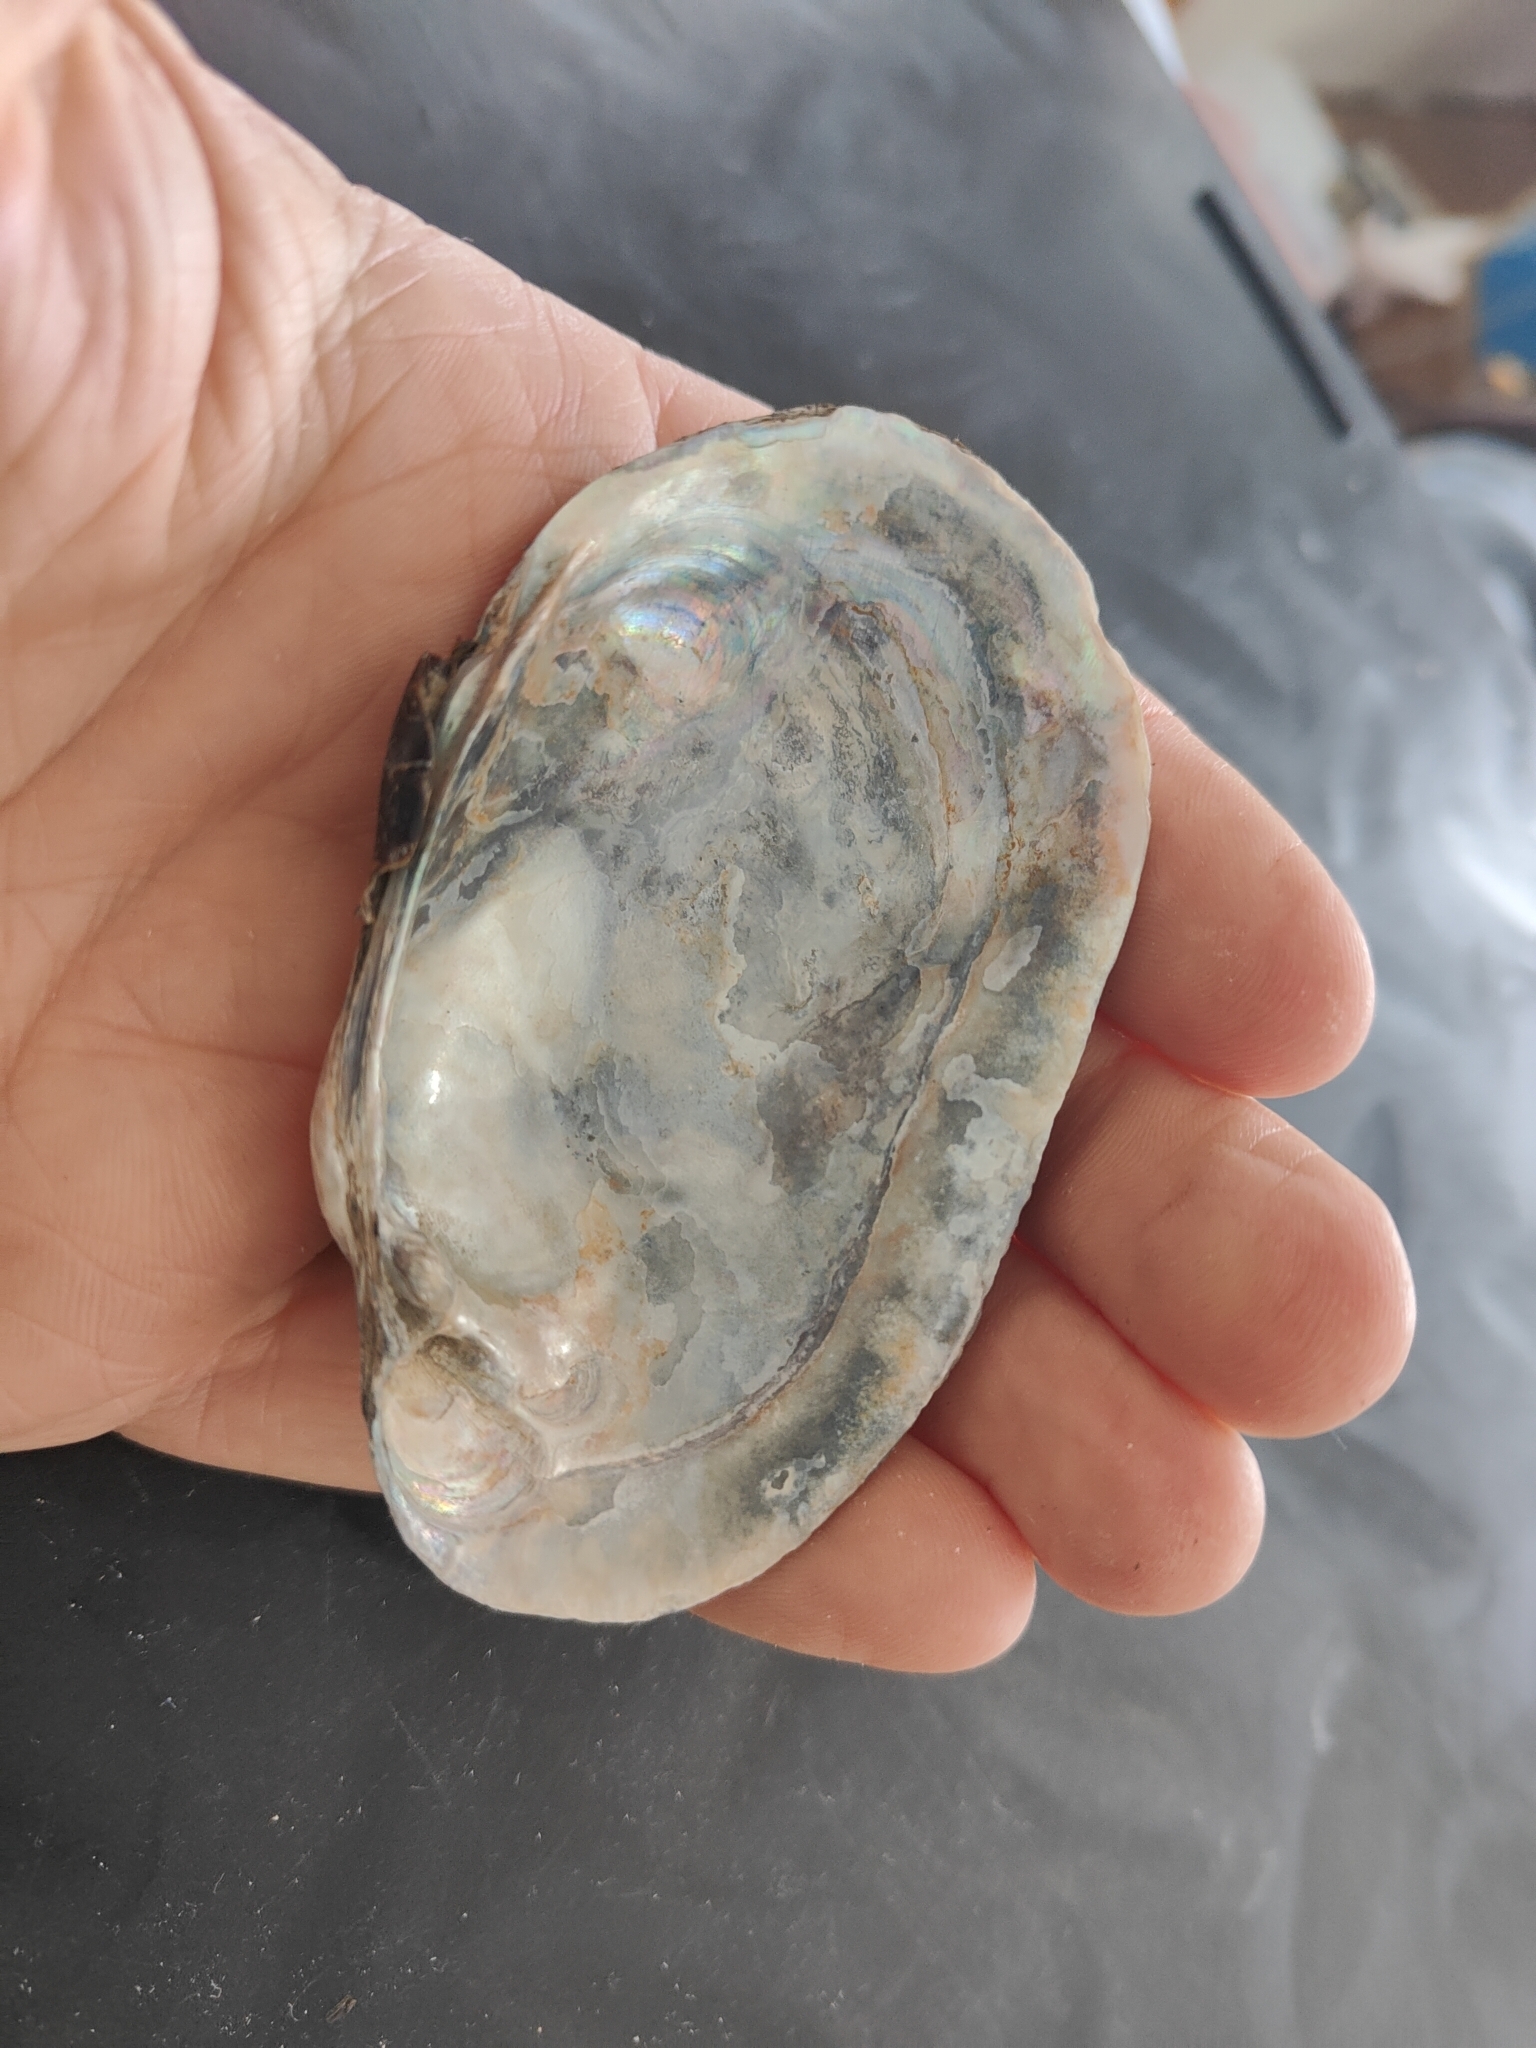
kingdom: Animalia
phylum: Mollusca
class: Bivalvia
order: Unionida
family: Unionidae
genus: Lampsilis
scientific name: Lampsilis siliquoidea
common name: Fatmucket
